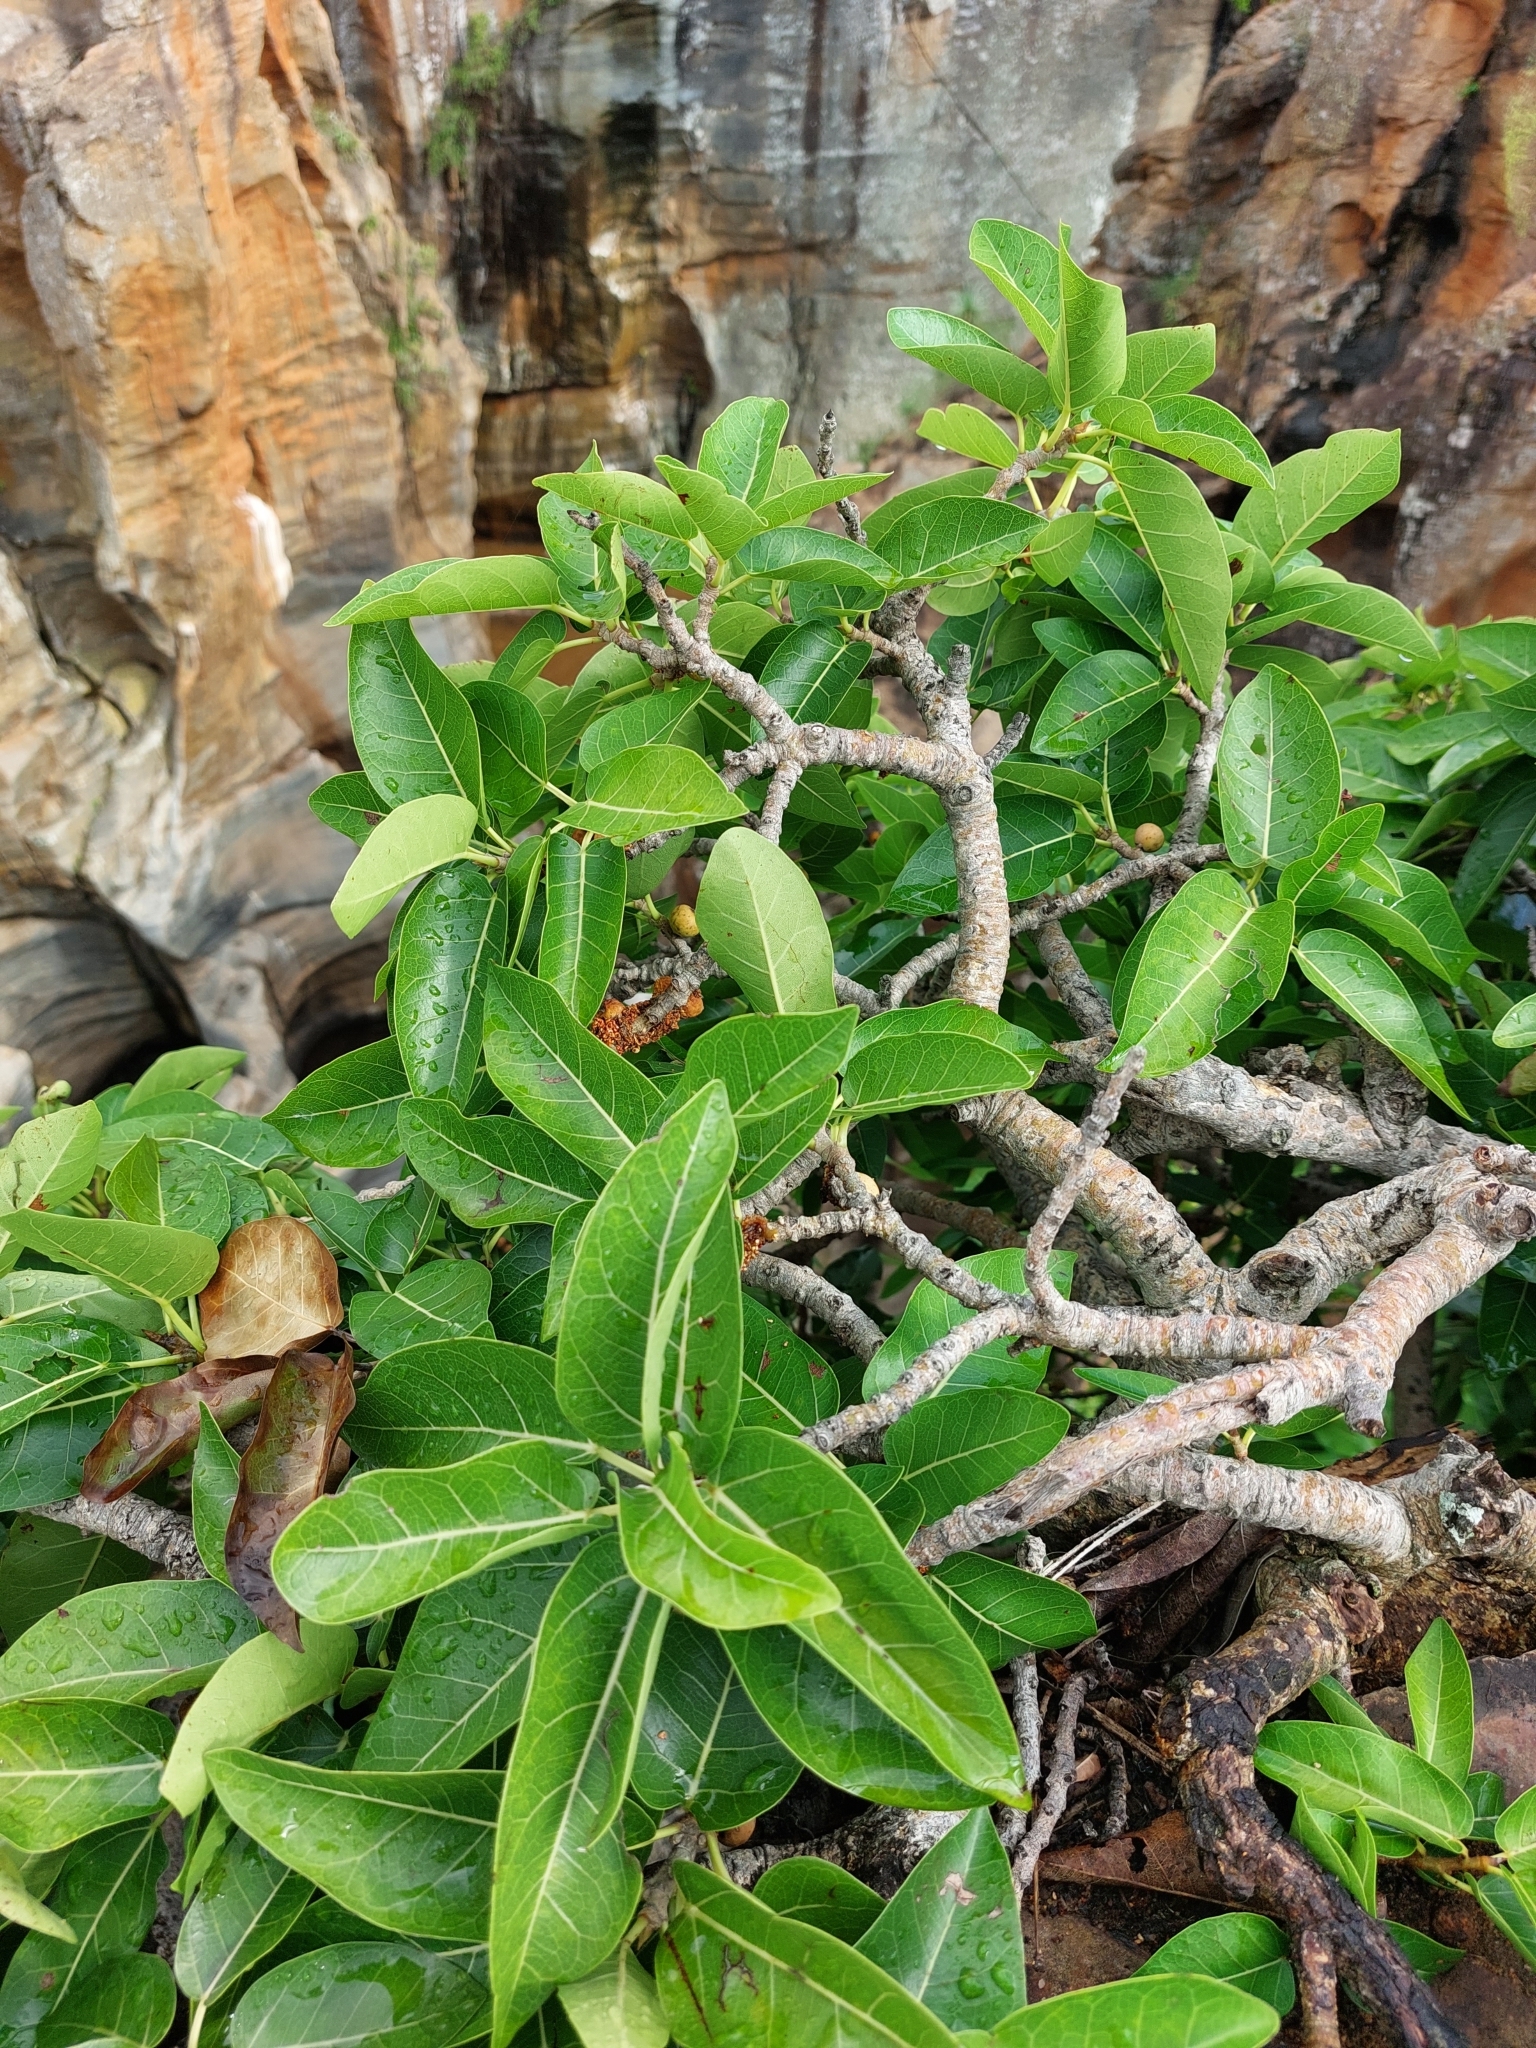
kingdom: Plantae
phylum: Tracheophyta
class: Magnoliopsida
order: Rosales
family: Moraceae
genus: Ficus
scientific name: Ficus ingens
